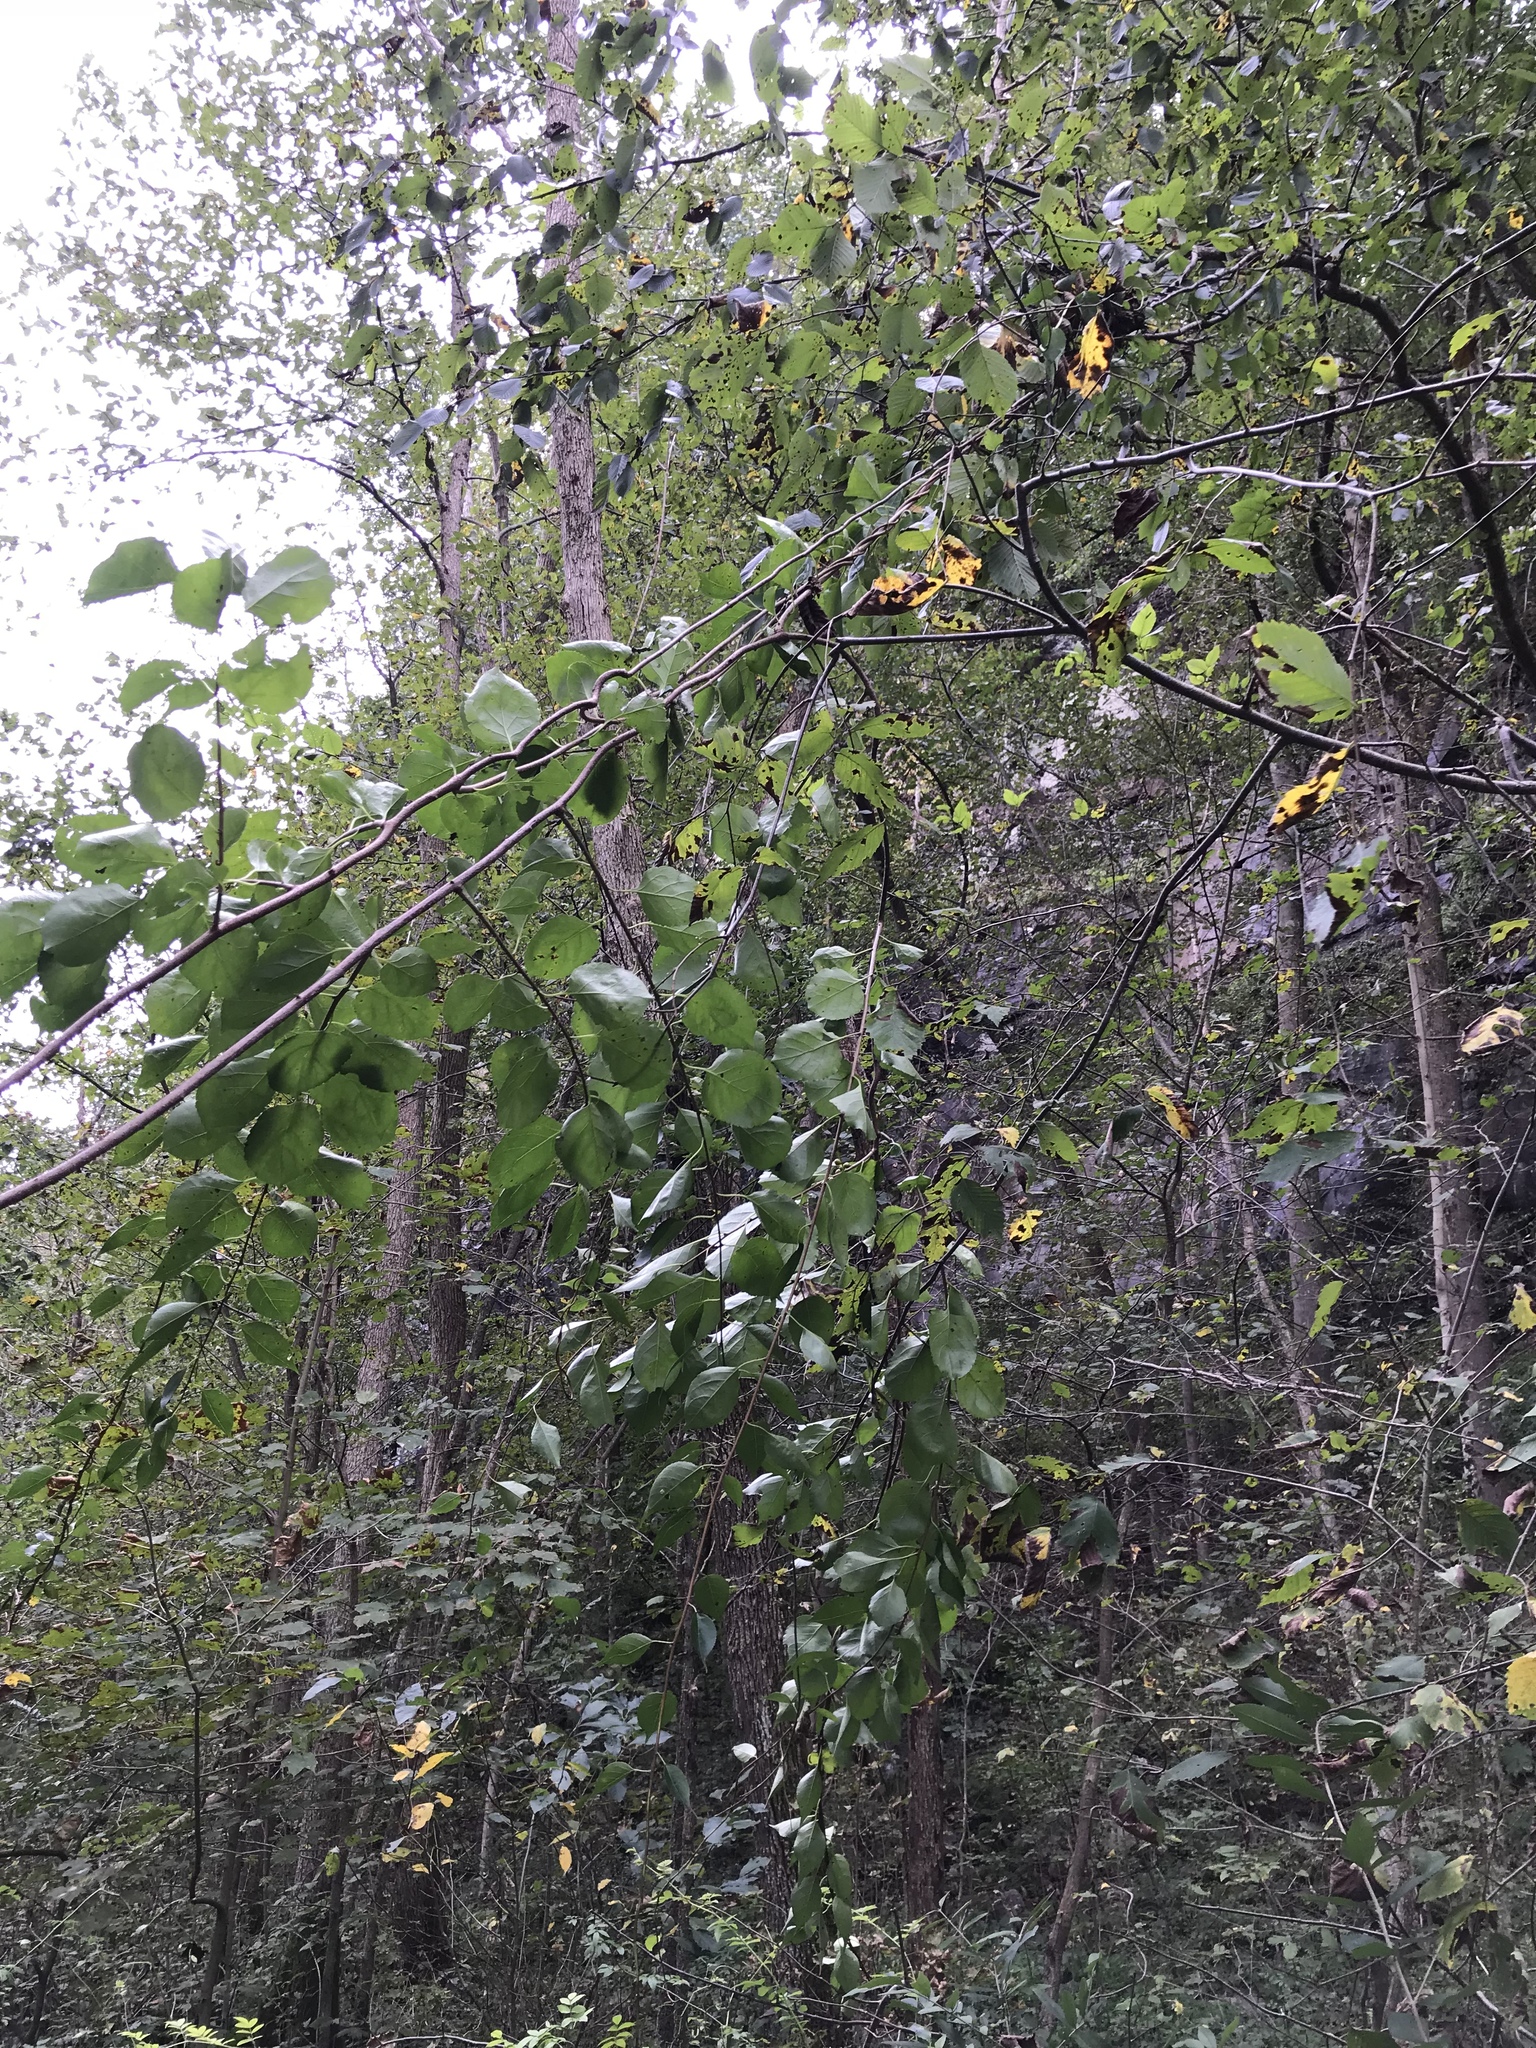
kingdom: Plantae
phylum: Tracheophyta
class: Magnoliopsida
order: Celastrales
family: Celastraceae
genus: Celastrus
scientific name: Celastrus orbiculatus
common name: Oriental bittersweet
